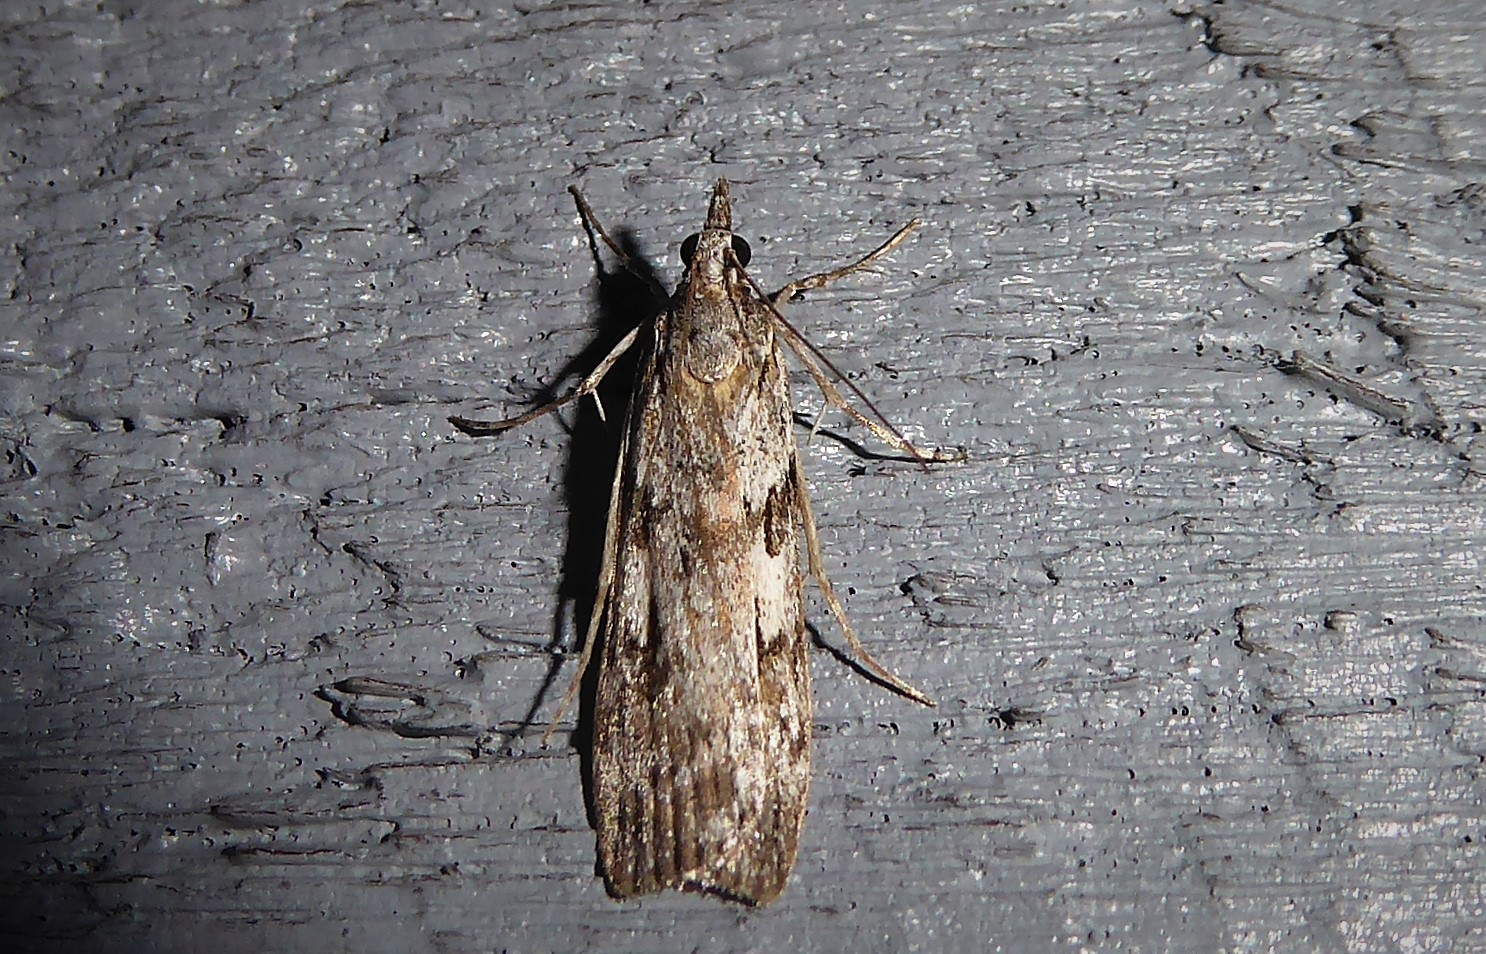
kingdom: Animalia
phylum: Arthropoda
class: Insecta
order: Lepidoptera
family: Crambidae
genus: Scoparia
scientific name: Scoparia halopis
